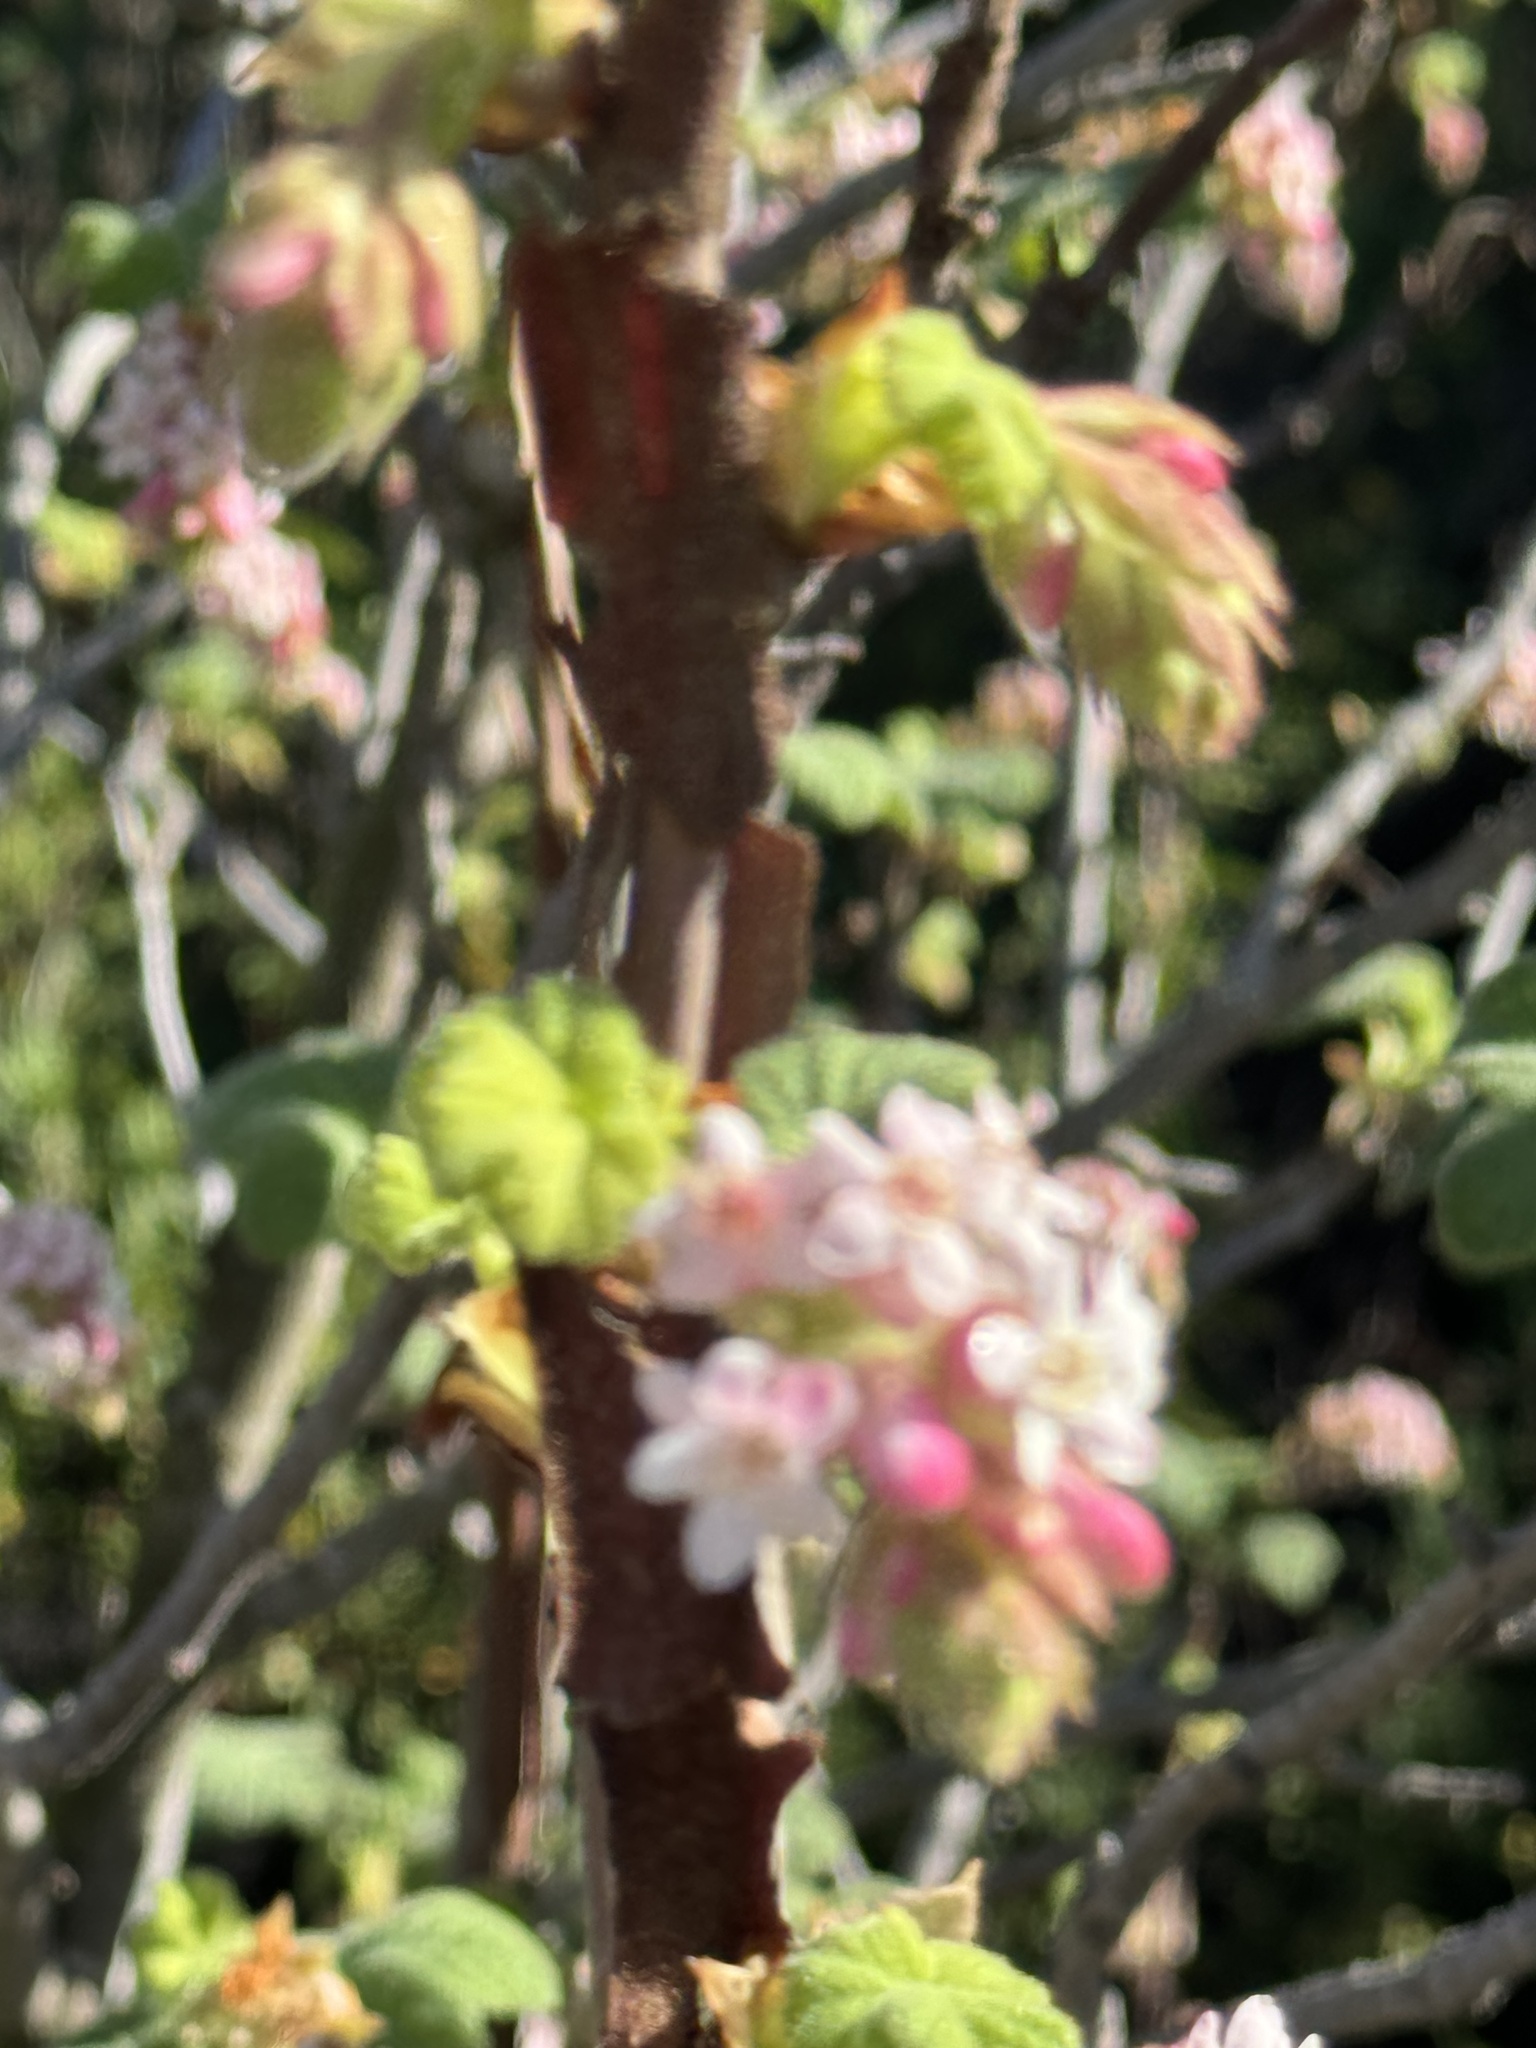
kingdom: Plantae
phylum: Tracheophyta
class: Magnoliopsida
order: Saxifragales
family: Grossulariaceae
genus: Ribes
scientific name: Ribes malvaceum
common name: Chaparral currant
